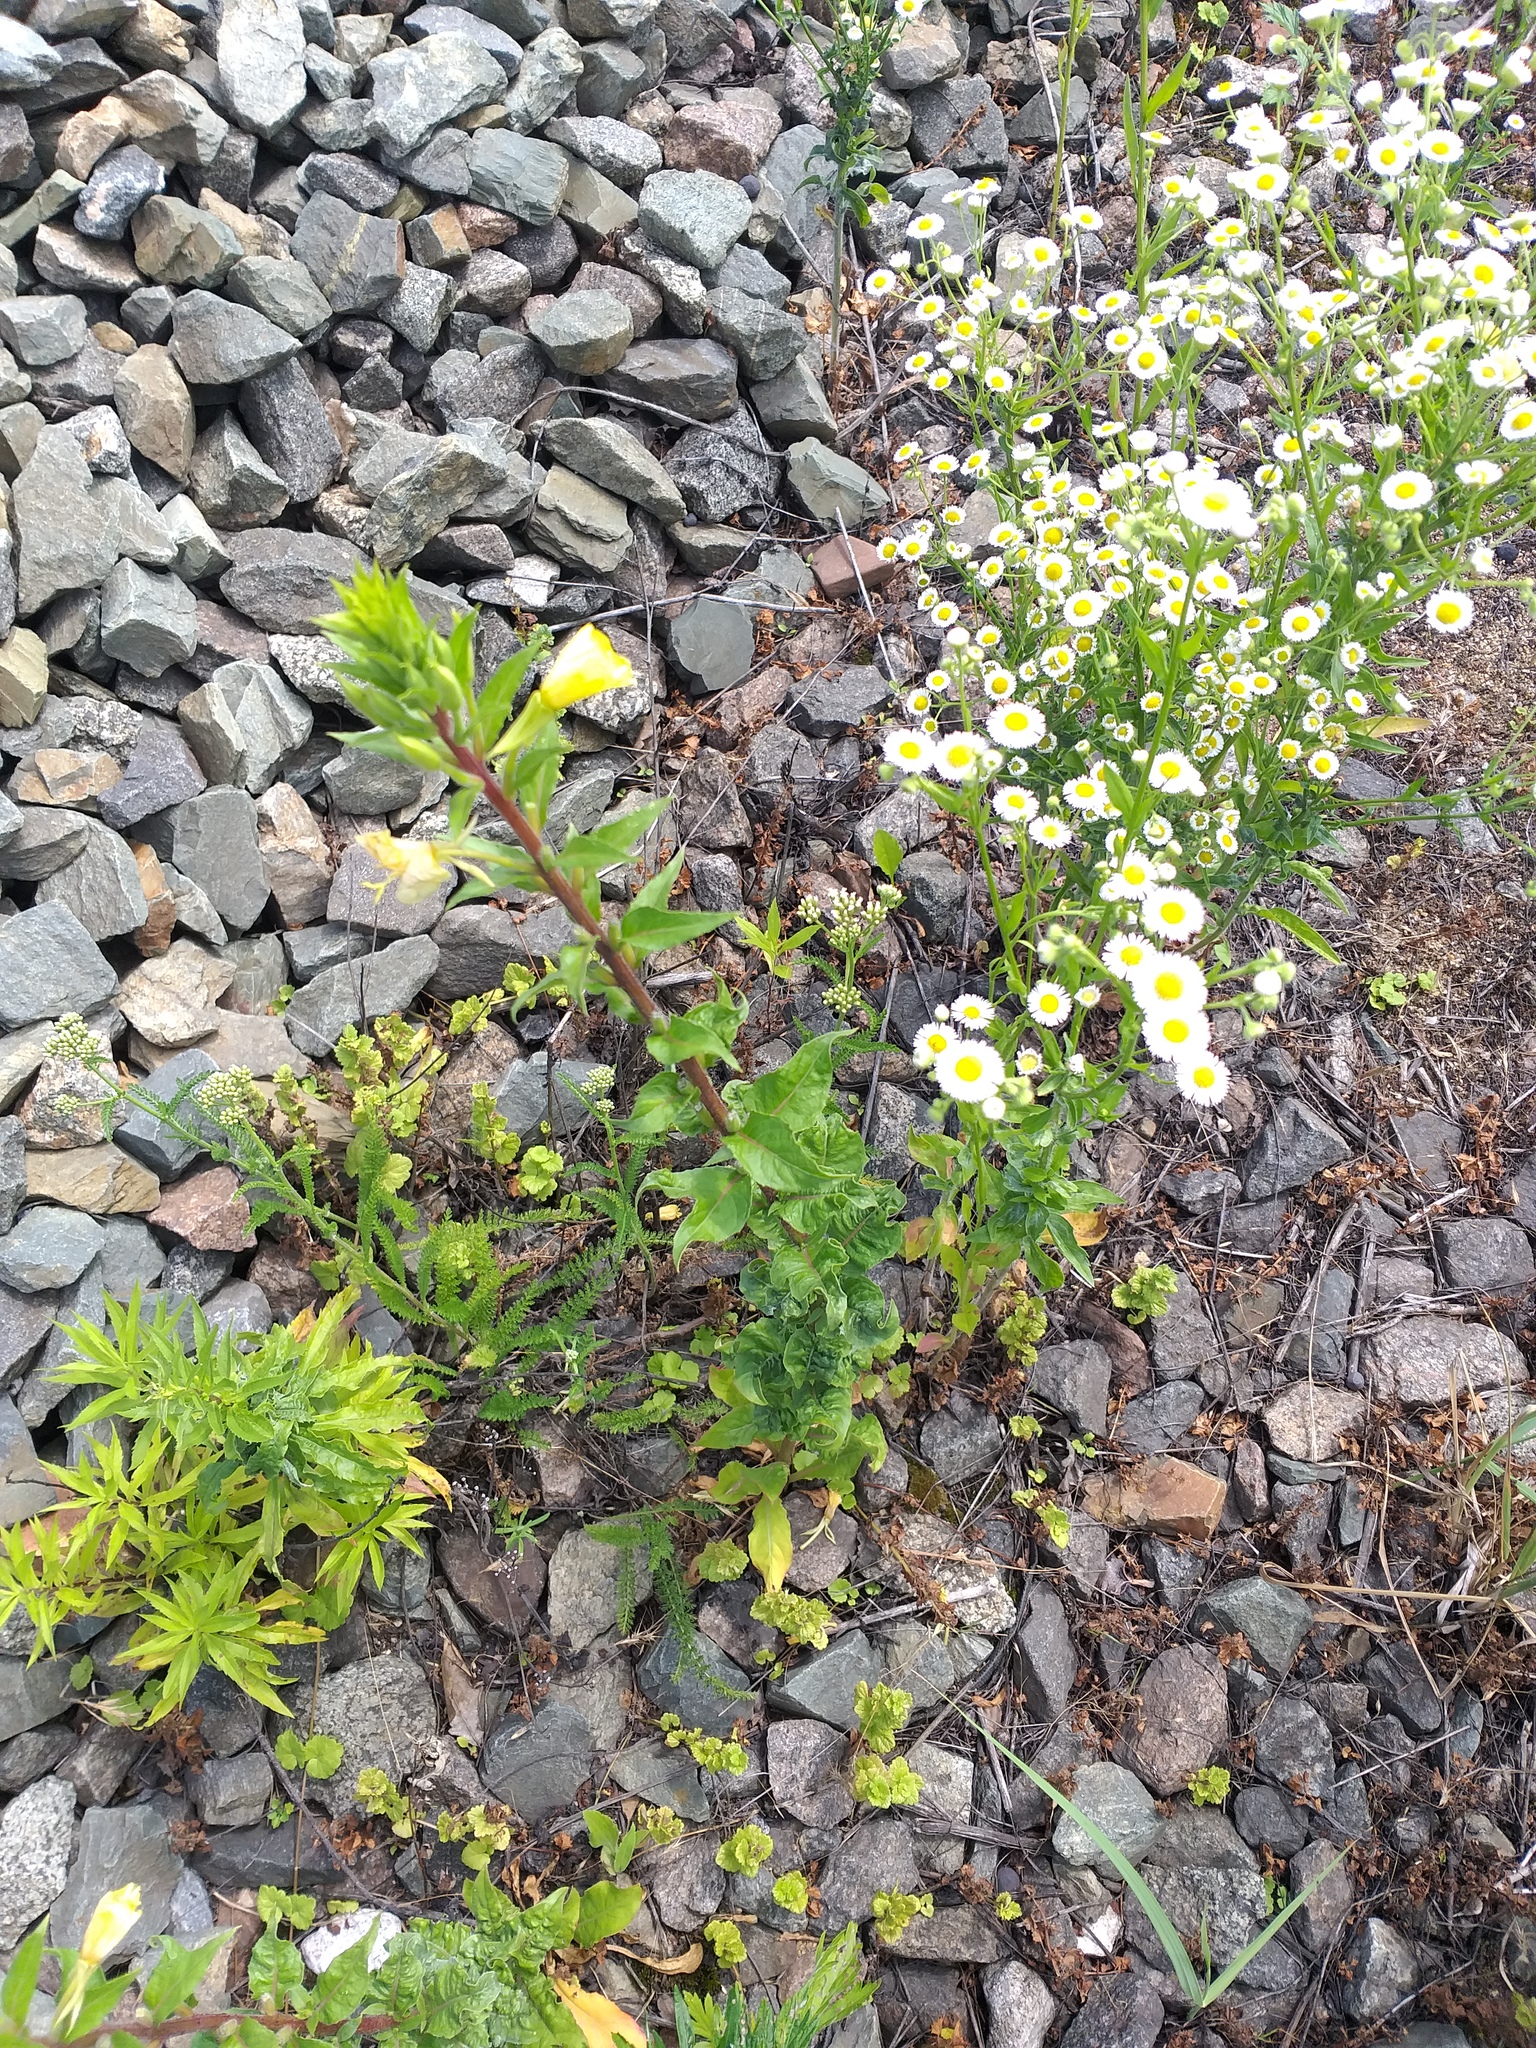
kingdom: Plantae
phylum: Tracheophyta
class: Magnoliopsida
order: Myrtales
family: Onagraceae
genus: Oenothera
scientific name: Oenothera rubricaulis
